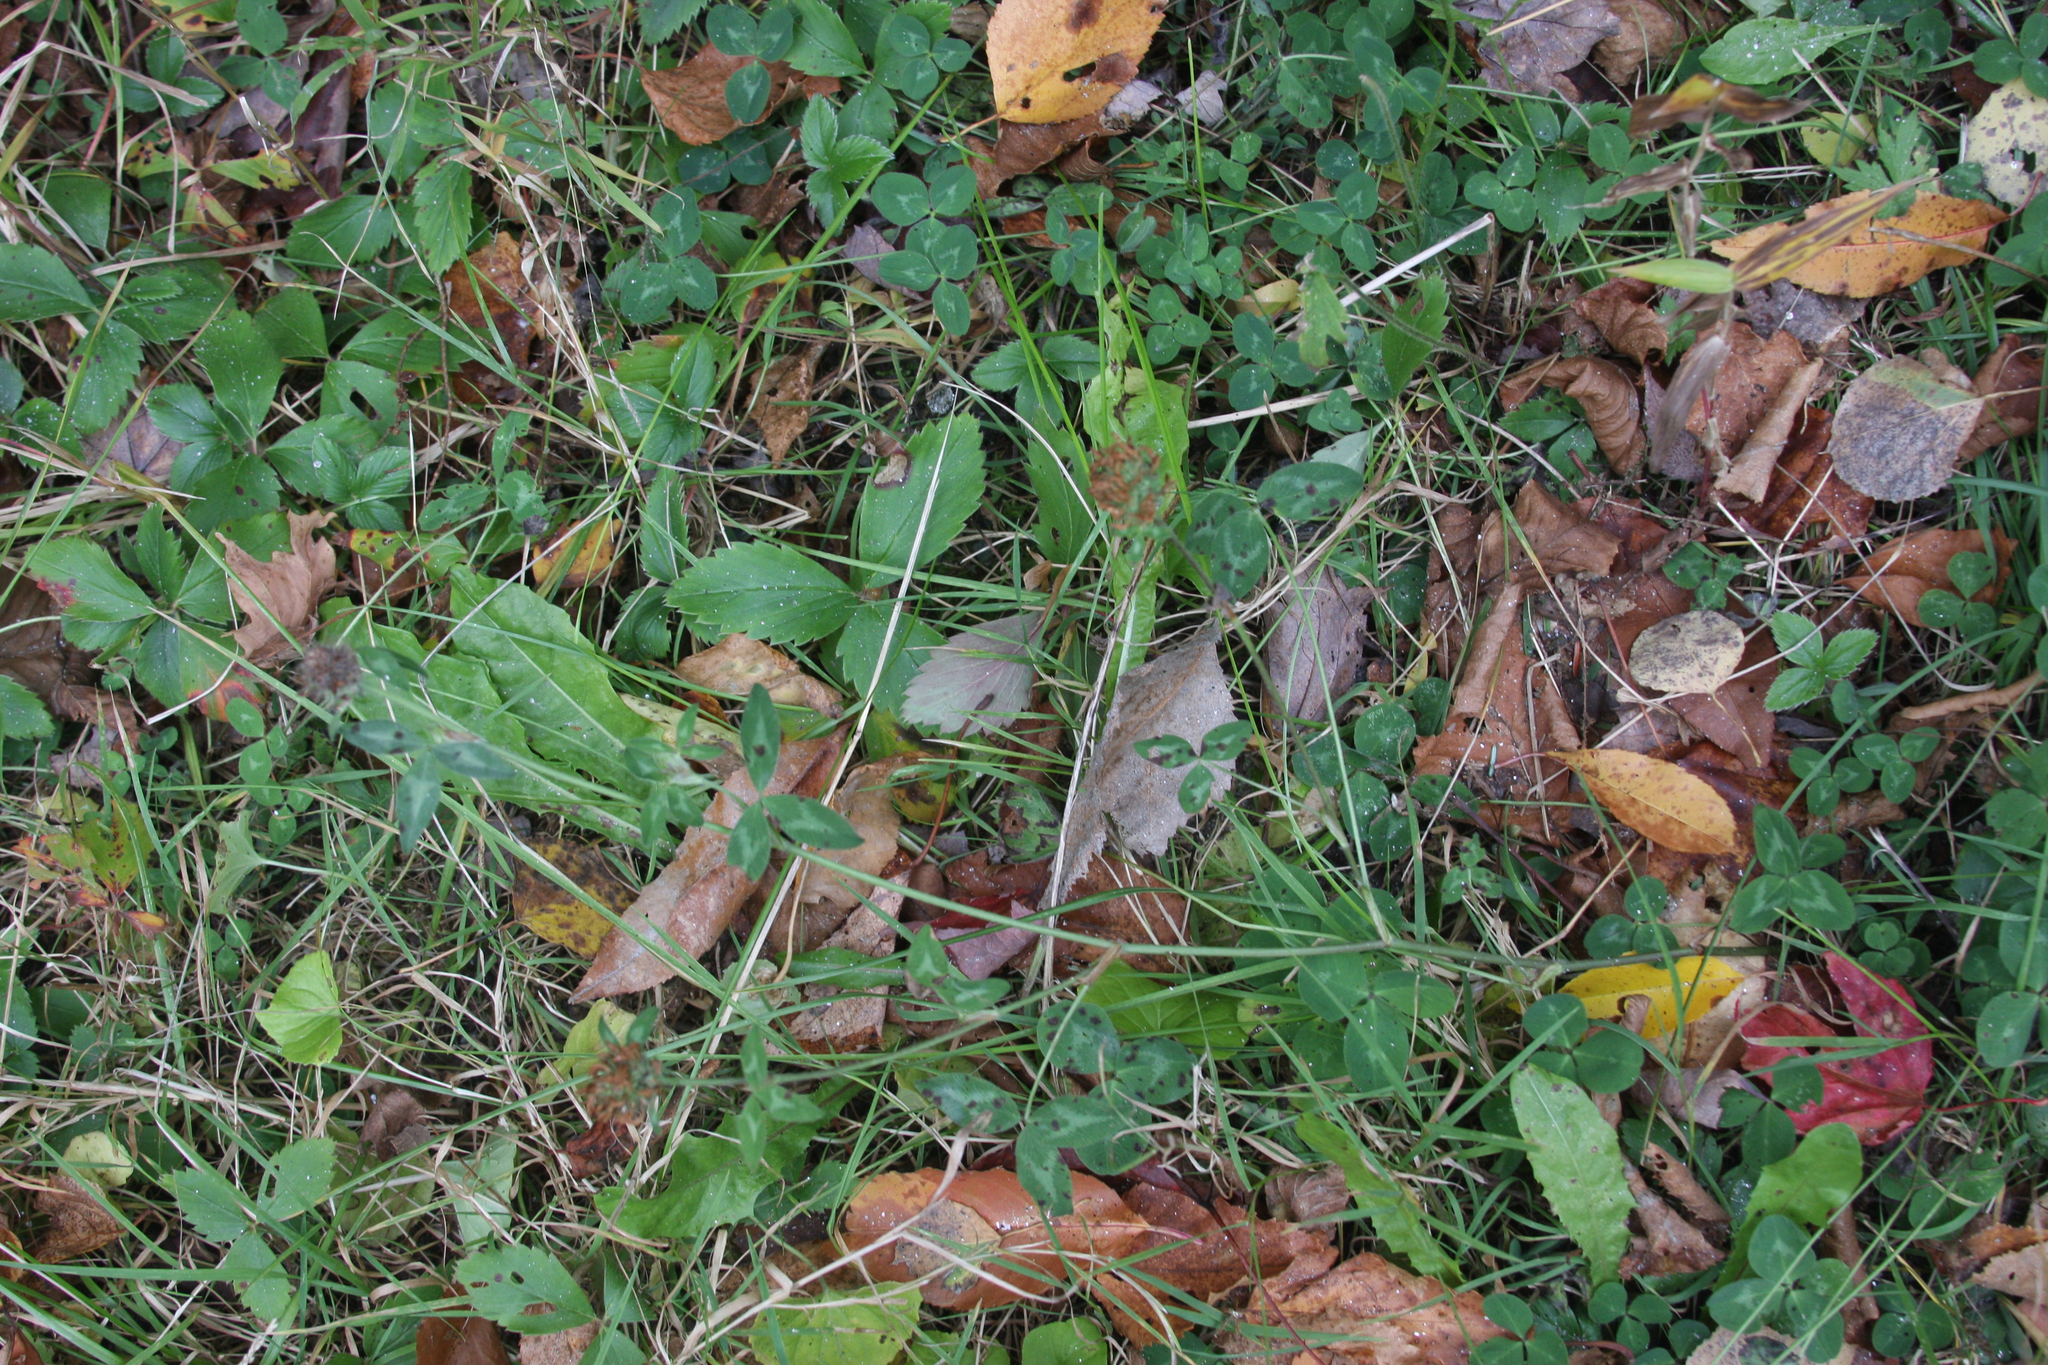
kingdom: Plantae
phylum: Tracheophyta
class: Magnoliopsida
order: Fabales
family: Fabaceae
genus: Trifolium
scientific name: Trifolium pratense
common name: Red clover
